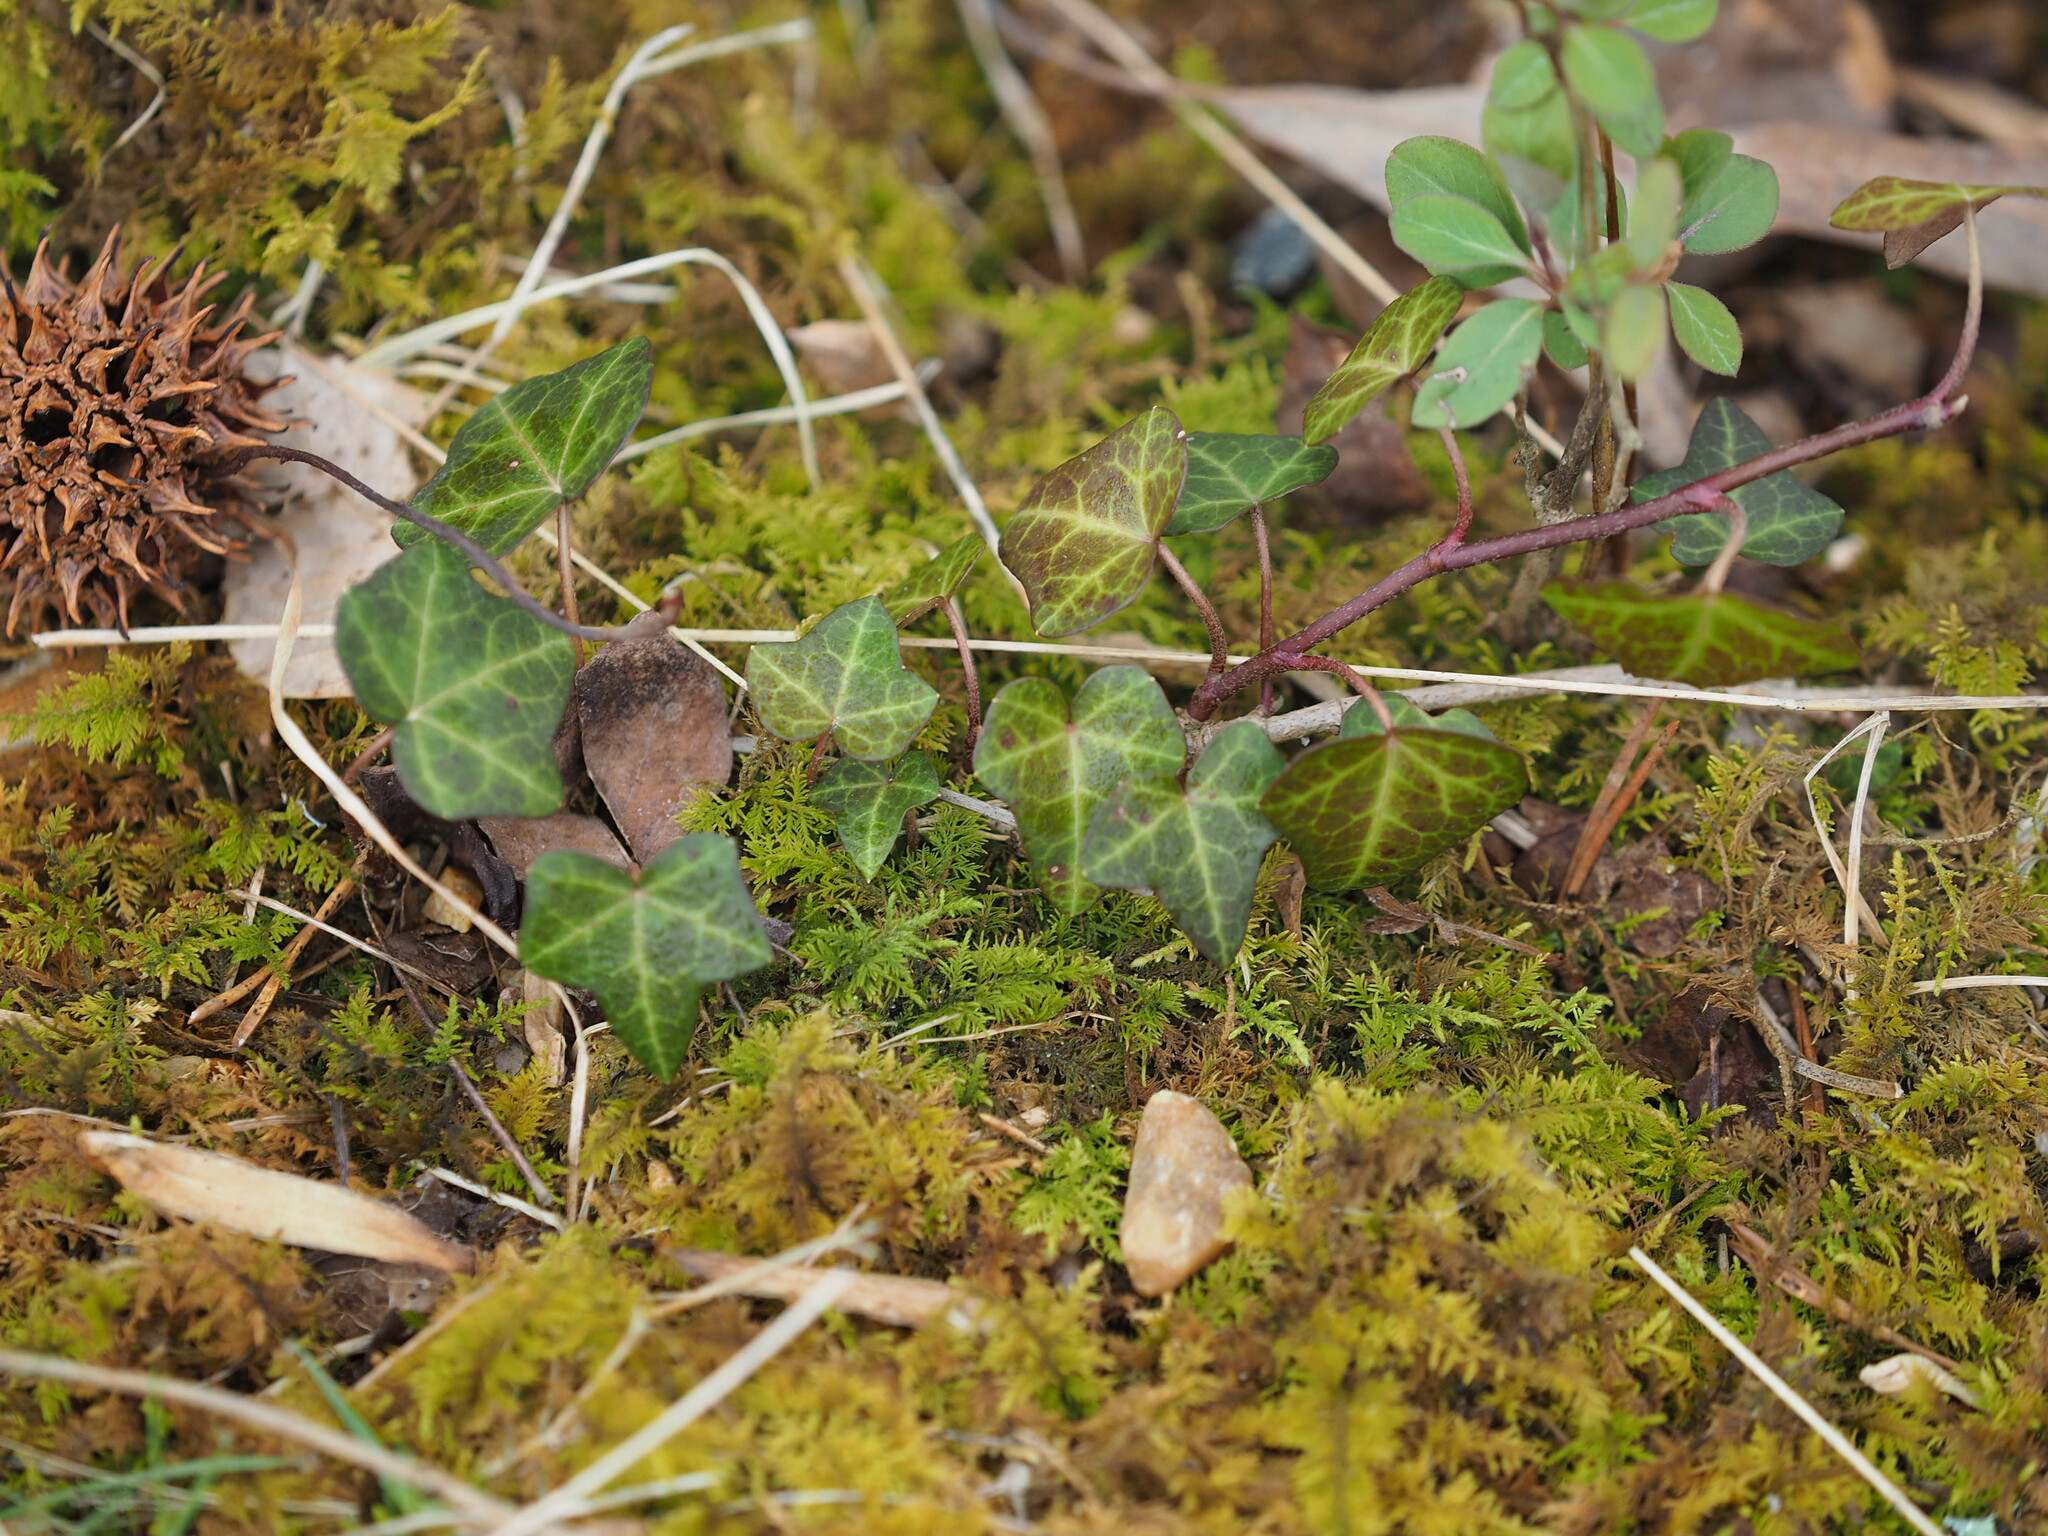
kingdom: Plantae
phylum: Tracheophyta
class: Magnoliopsida
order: Apiales
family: Araliaceae
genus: Hedera
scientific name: Hedera helix
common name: Ivy
